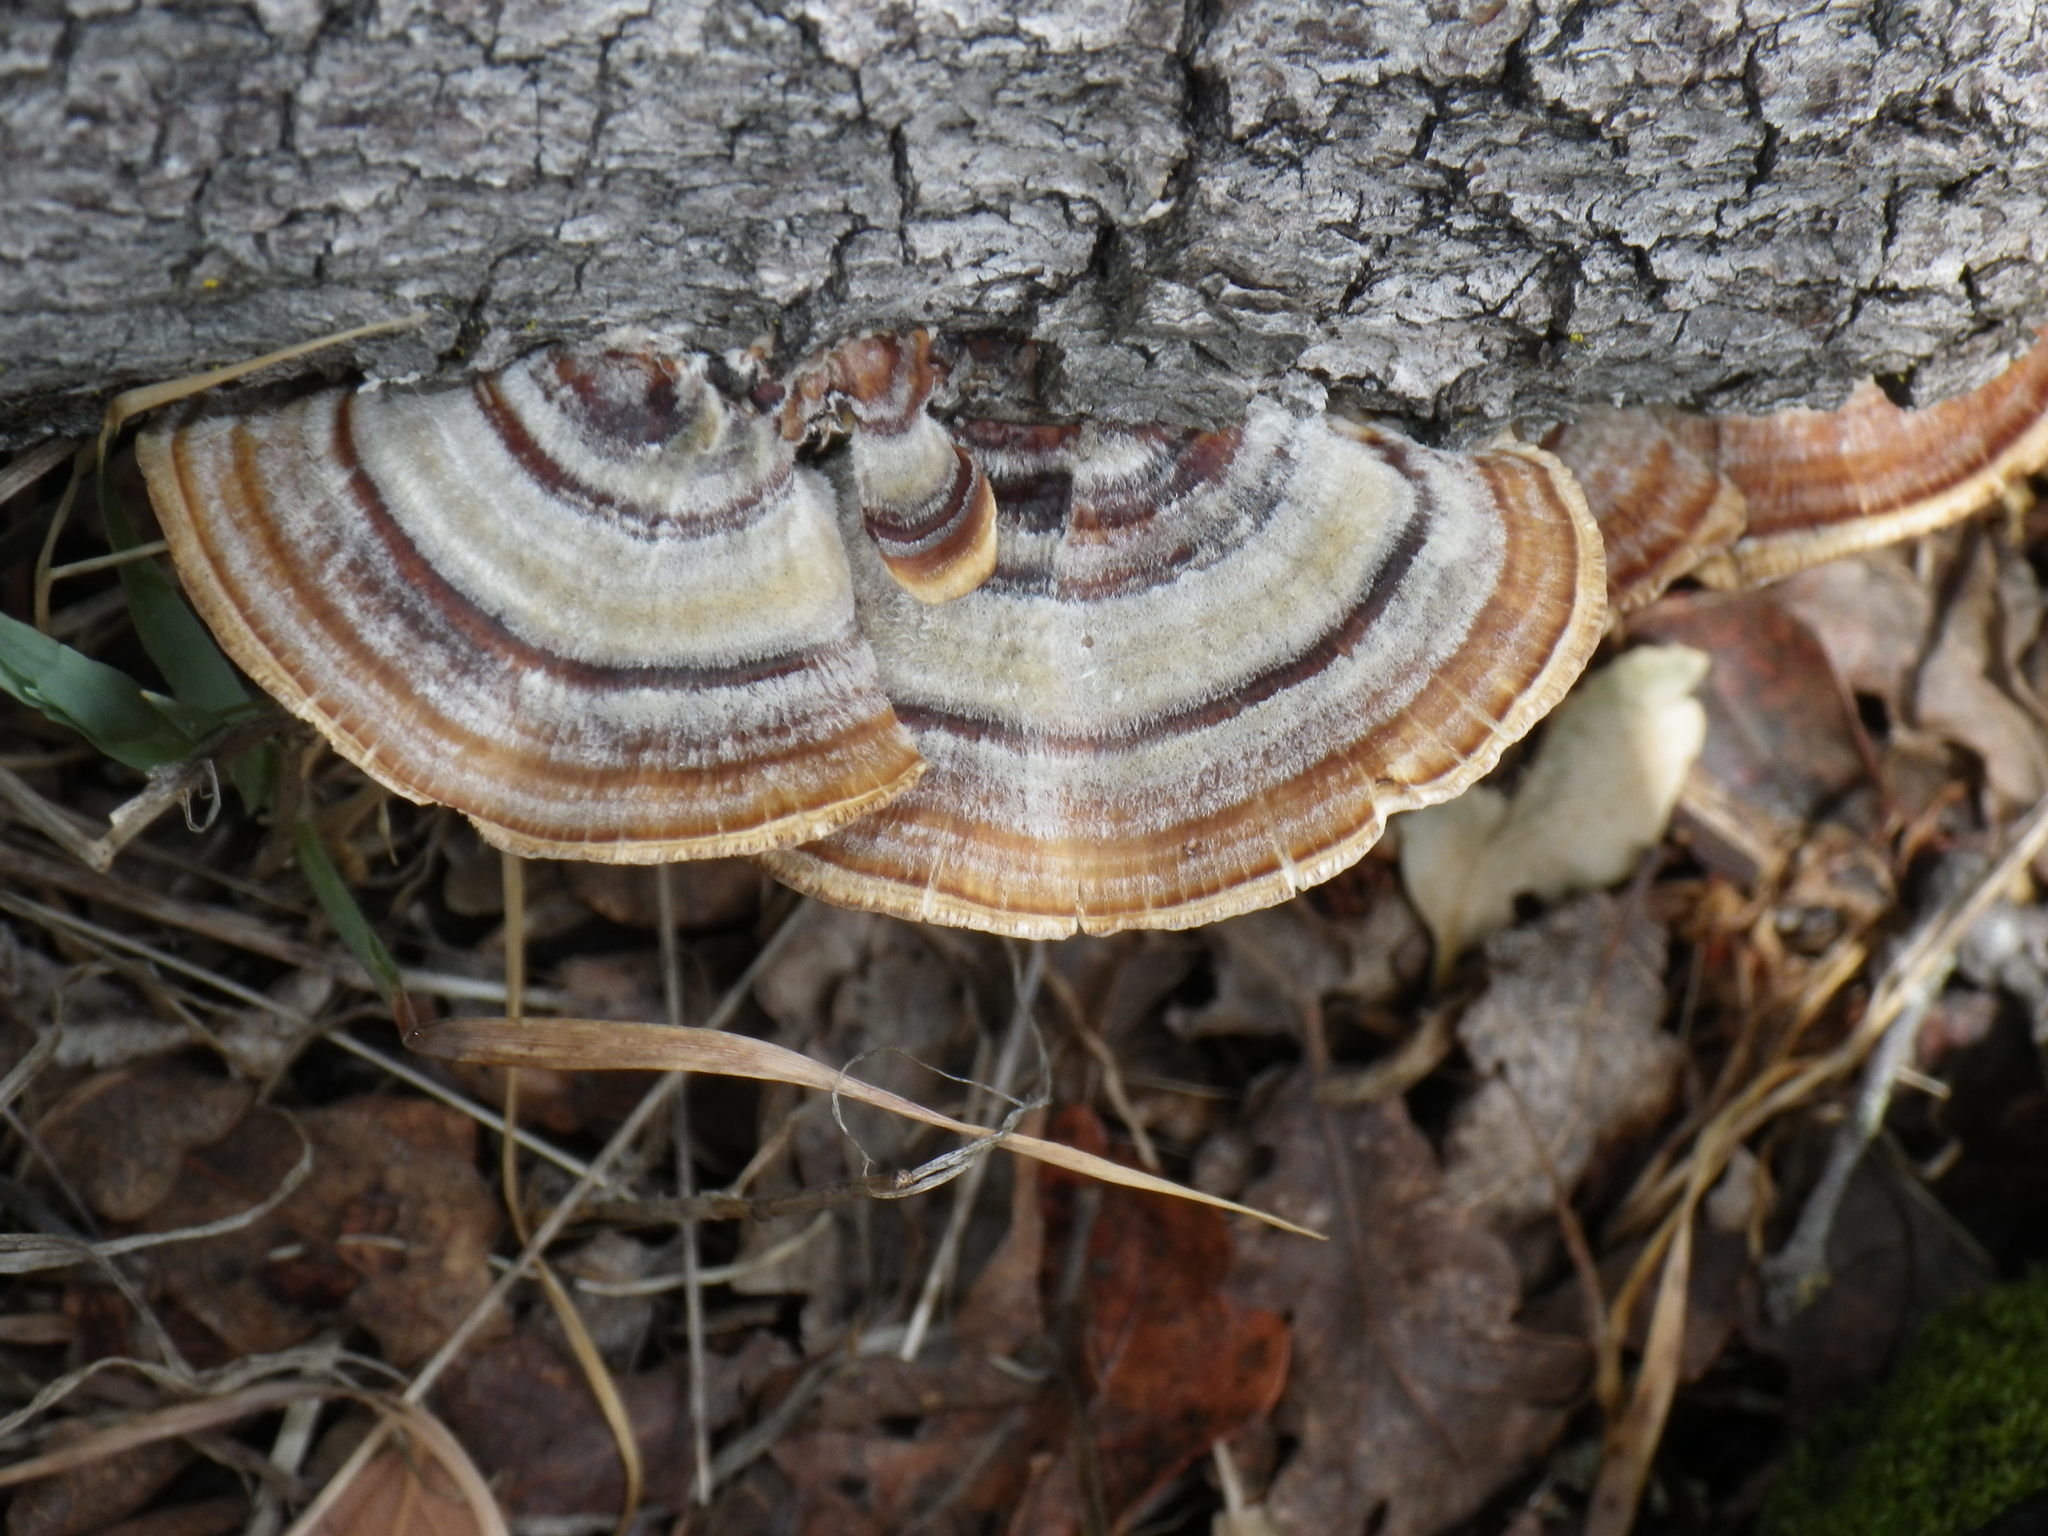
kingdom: Fungi
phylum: Basidiomycota
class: Agaricomycetes
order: Polyporales
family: Polyporaceae
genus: Trametes
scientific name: Trametes versicolor
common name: Turkeytail
